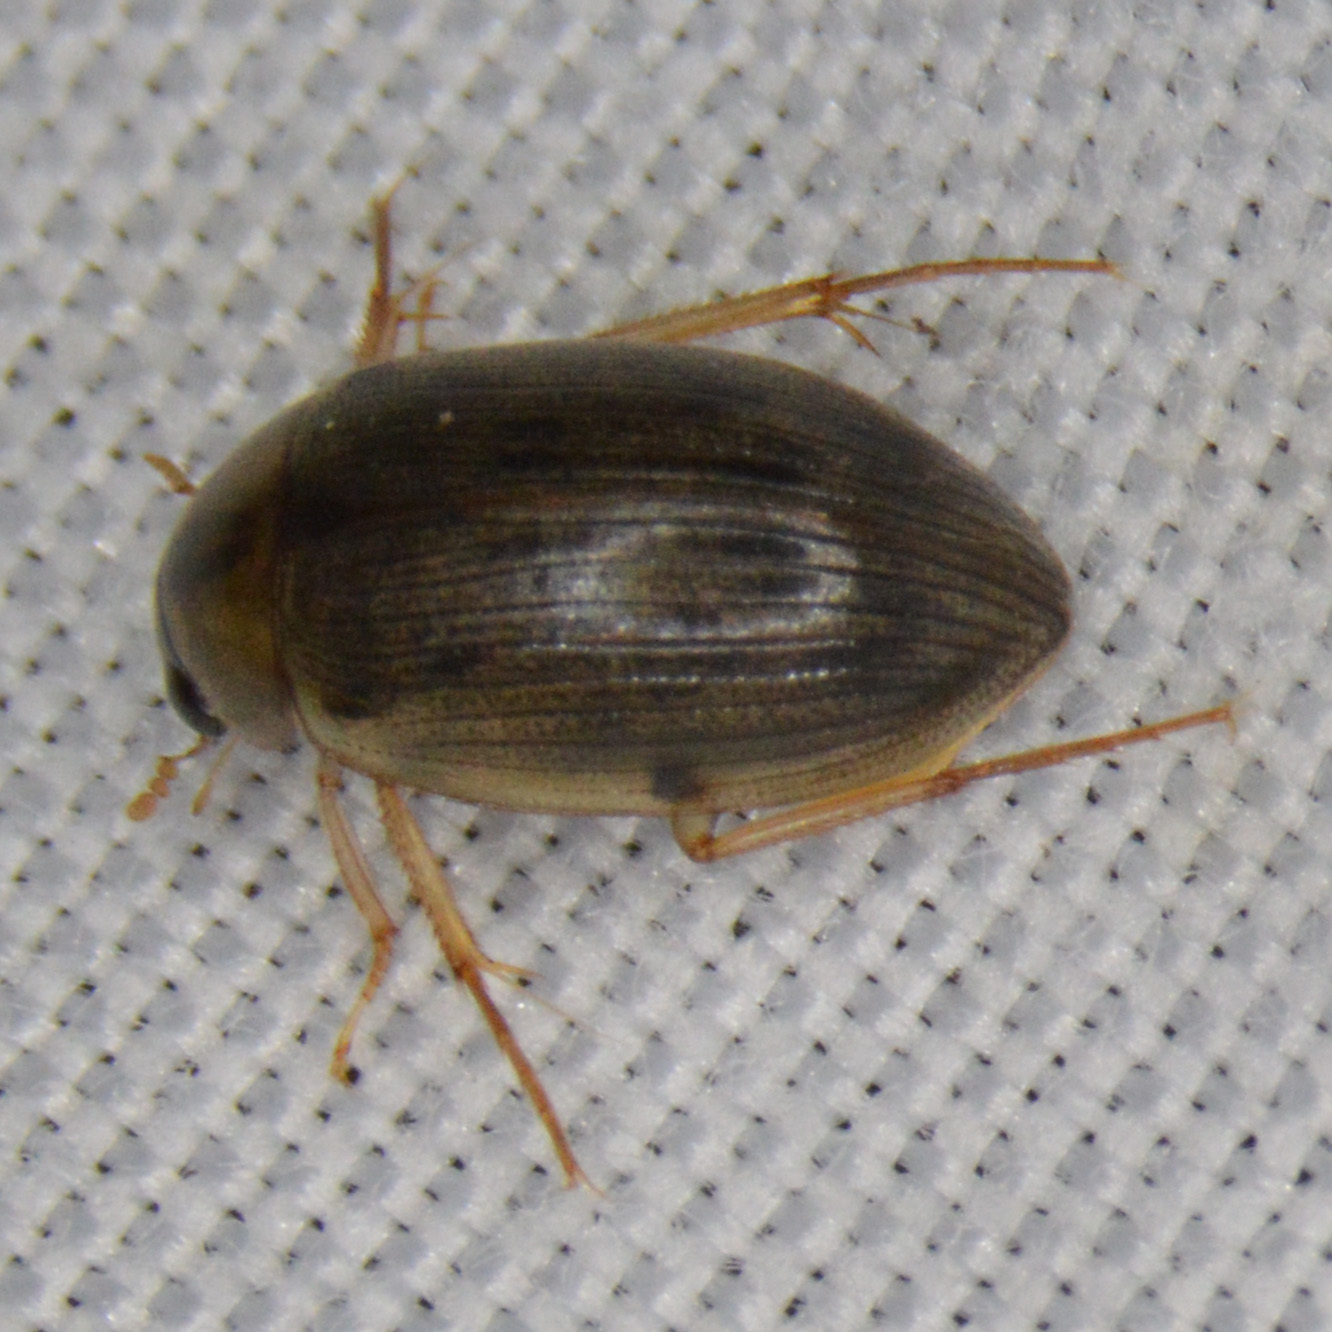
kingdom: Animalia
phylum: Arthropoda
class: Insecta
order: Coleoptera
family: Hydrophilidae
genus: Berosus
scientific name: Berosus
